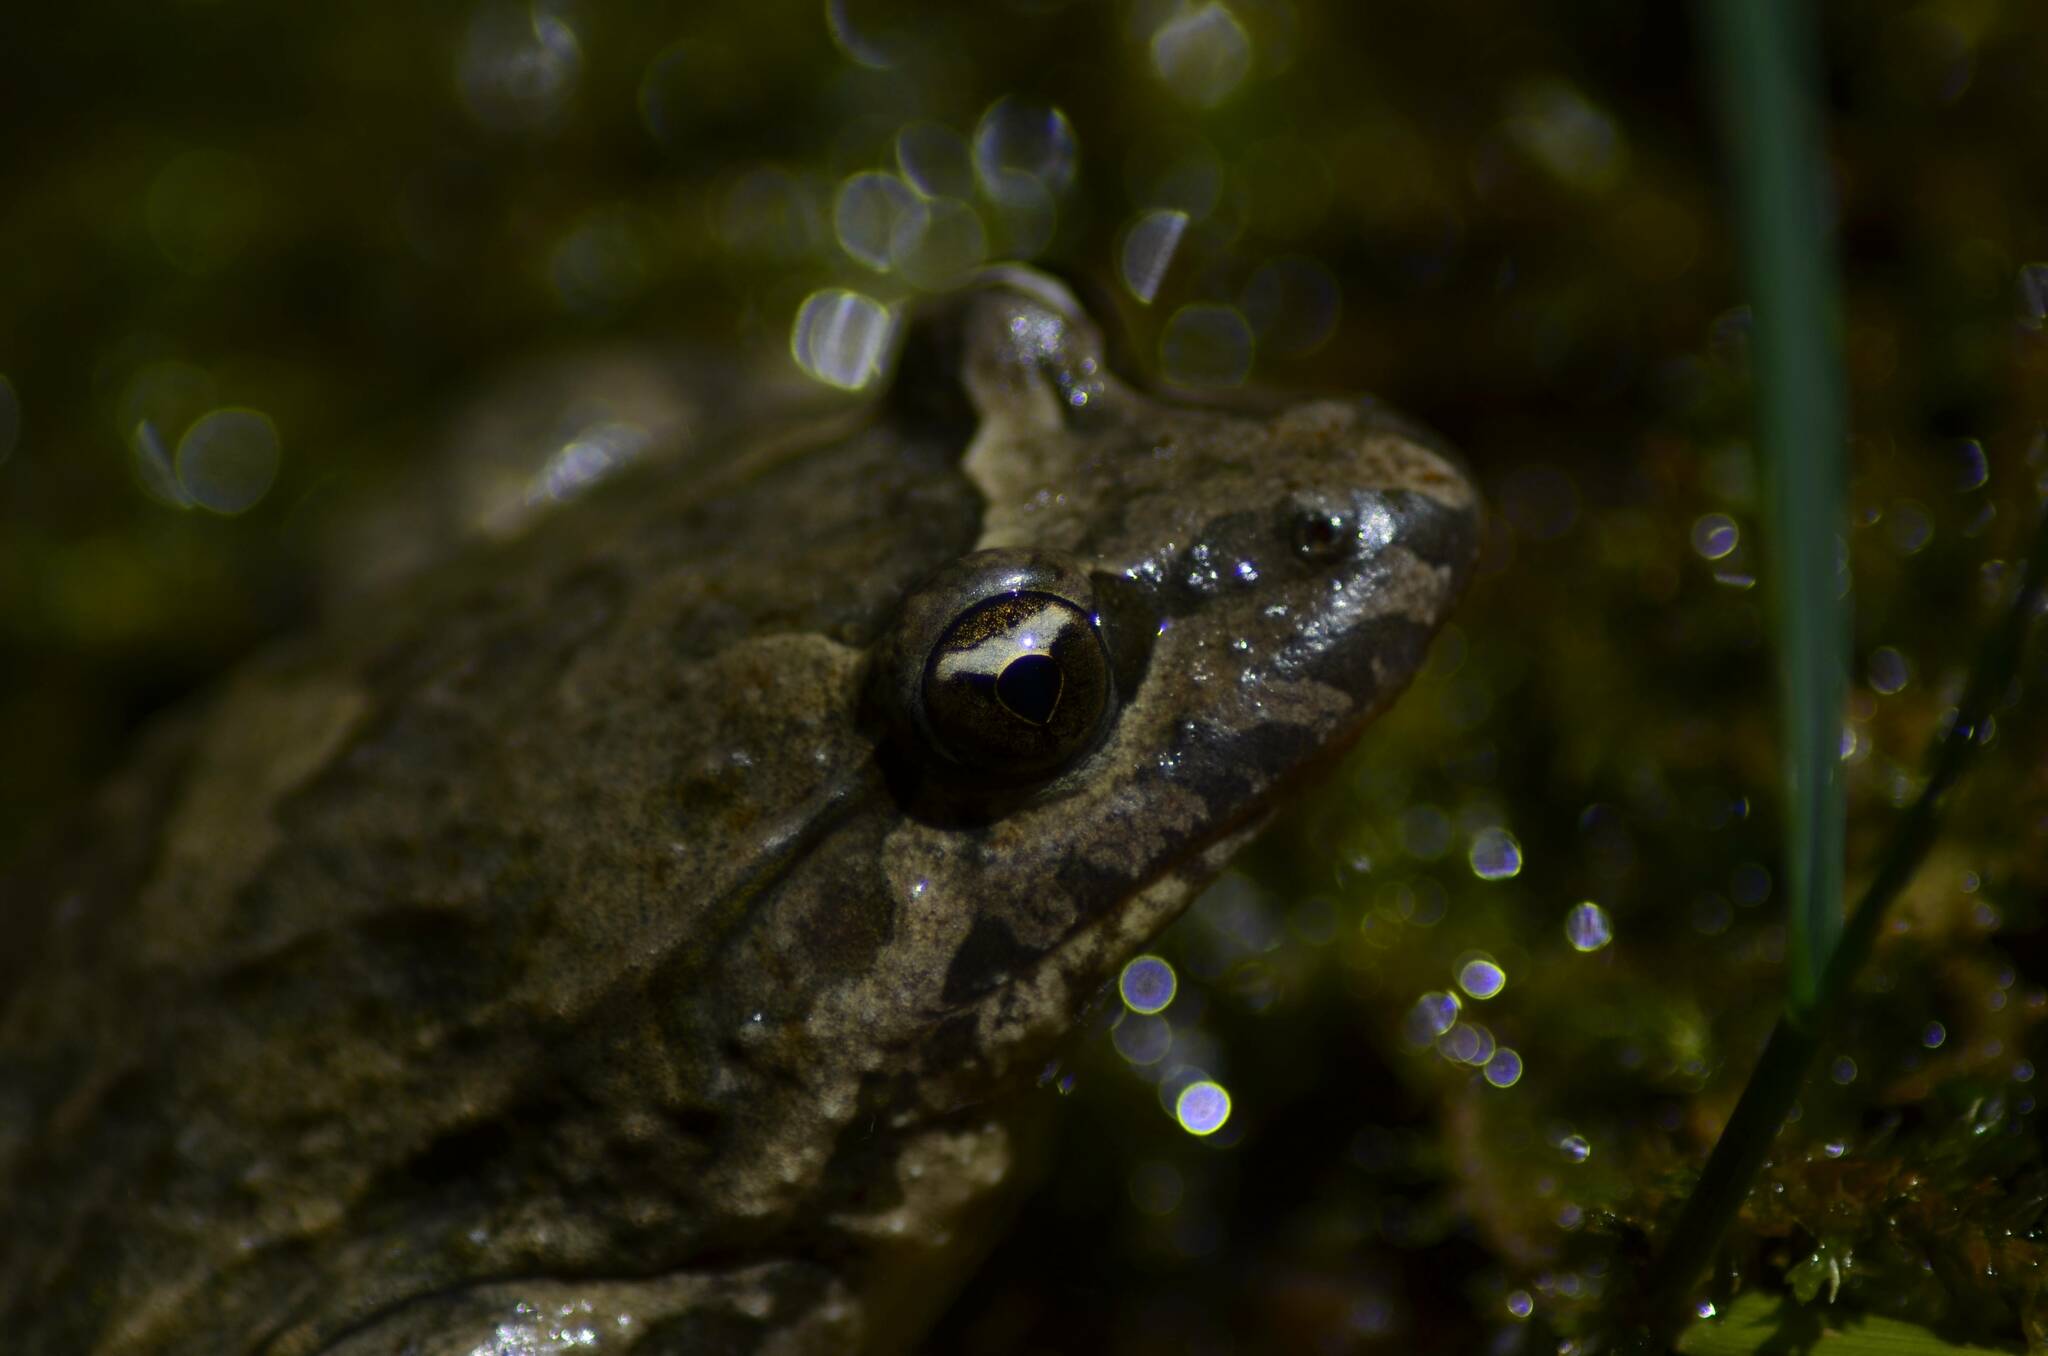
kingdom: Animalia
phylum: Chordata
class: Amphibia
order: Anura
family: Alytidae
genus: Discoglossus
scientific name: Discoglossus pictus
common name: Painted frog
